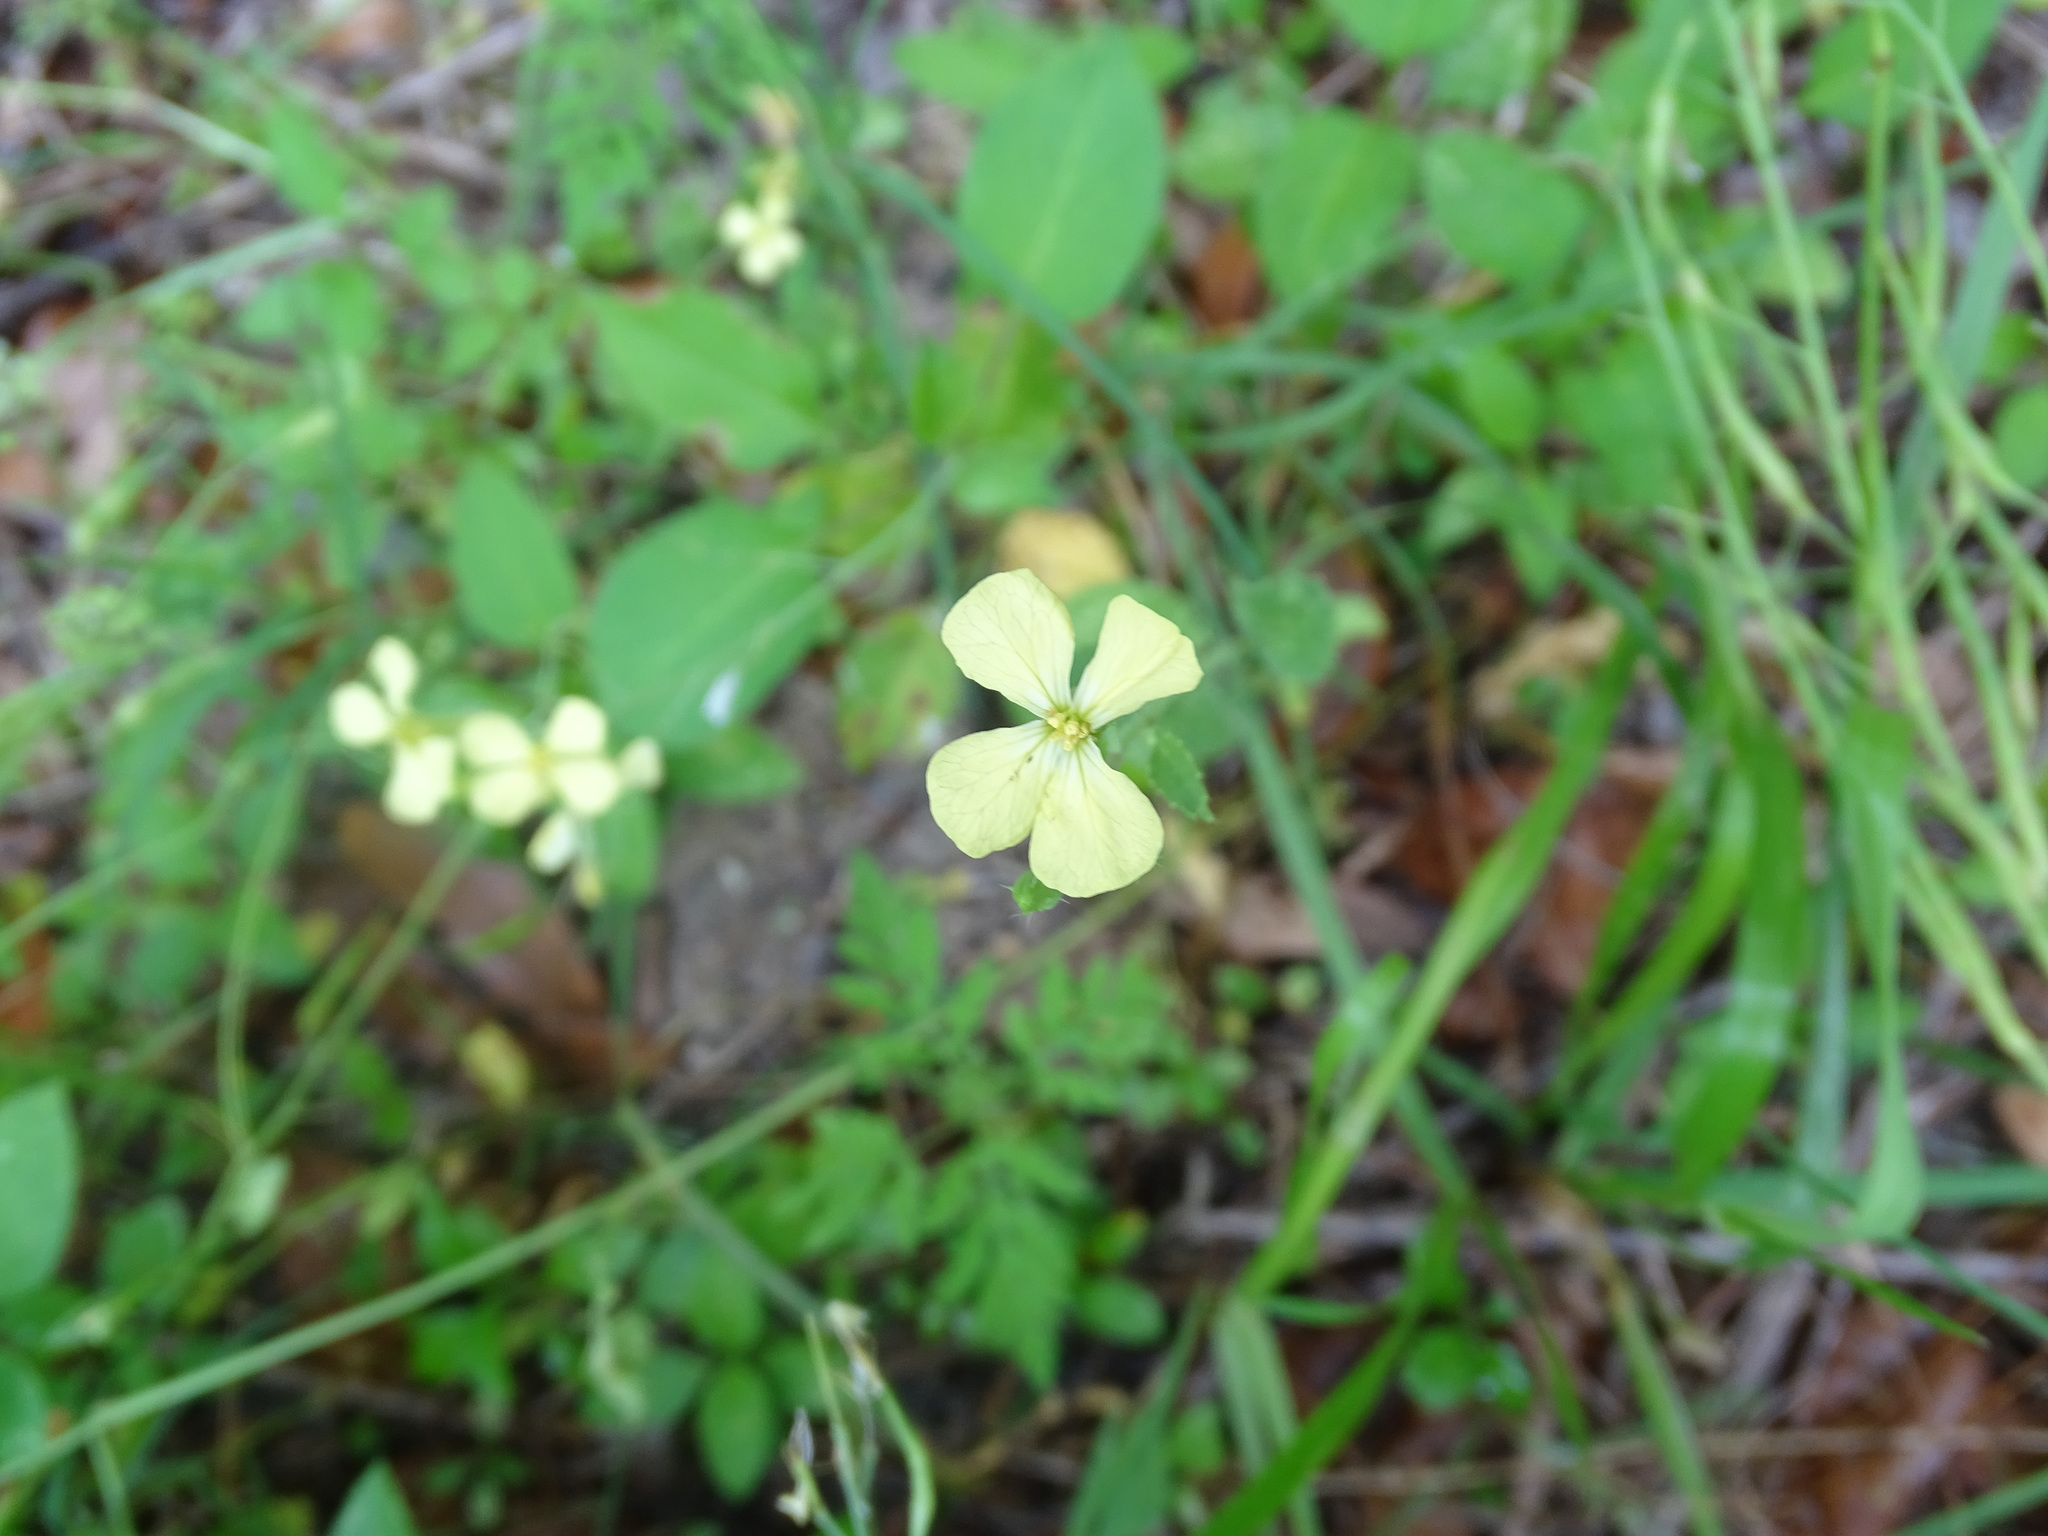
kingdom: Plantae
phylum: Tracheophyta
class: Magnoliopsida
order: Brassicales
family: Brassicaceae
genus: Raphanus
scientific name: Raphanus raphanistrum
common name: Wild radish
